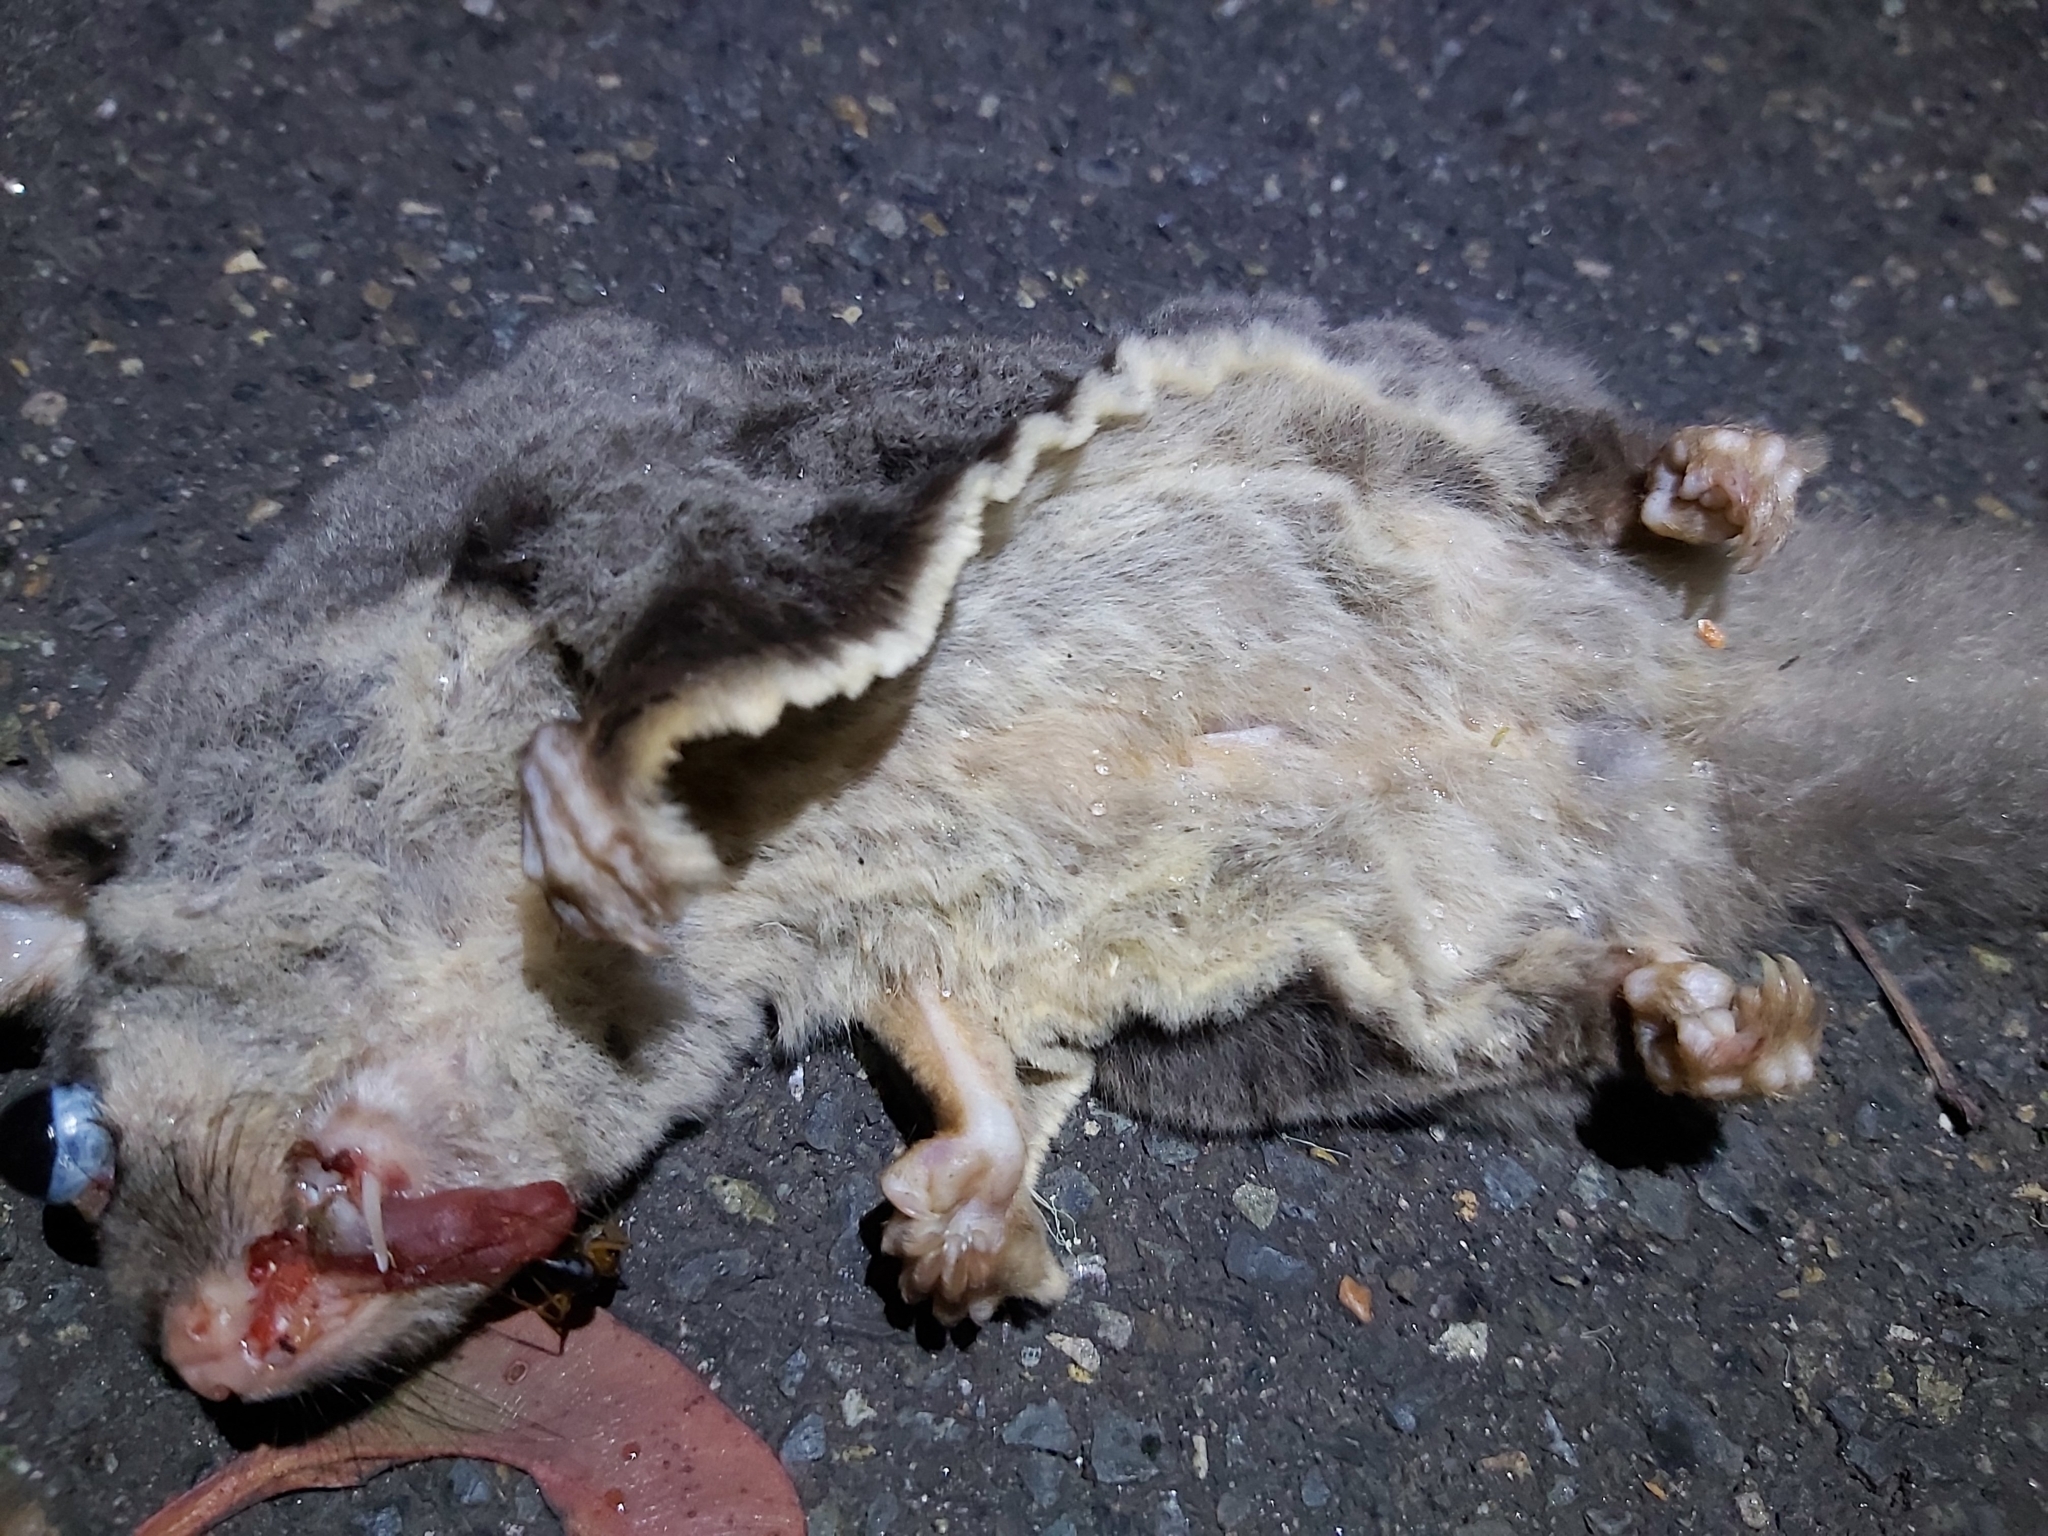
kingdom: Animalia
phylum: Chordata
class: Mammalia
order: Diprotodontia
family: Petauridae
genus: Petaurus
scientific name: Petaurus breviceps
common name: Sugar glider
